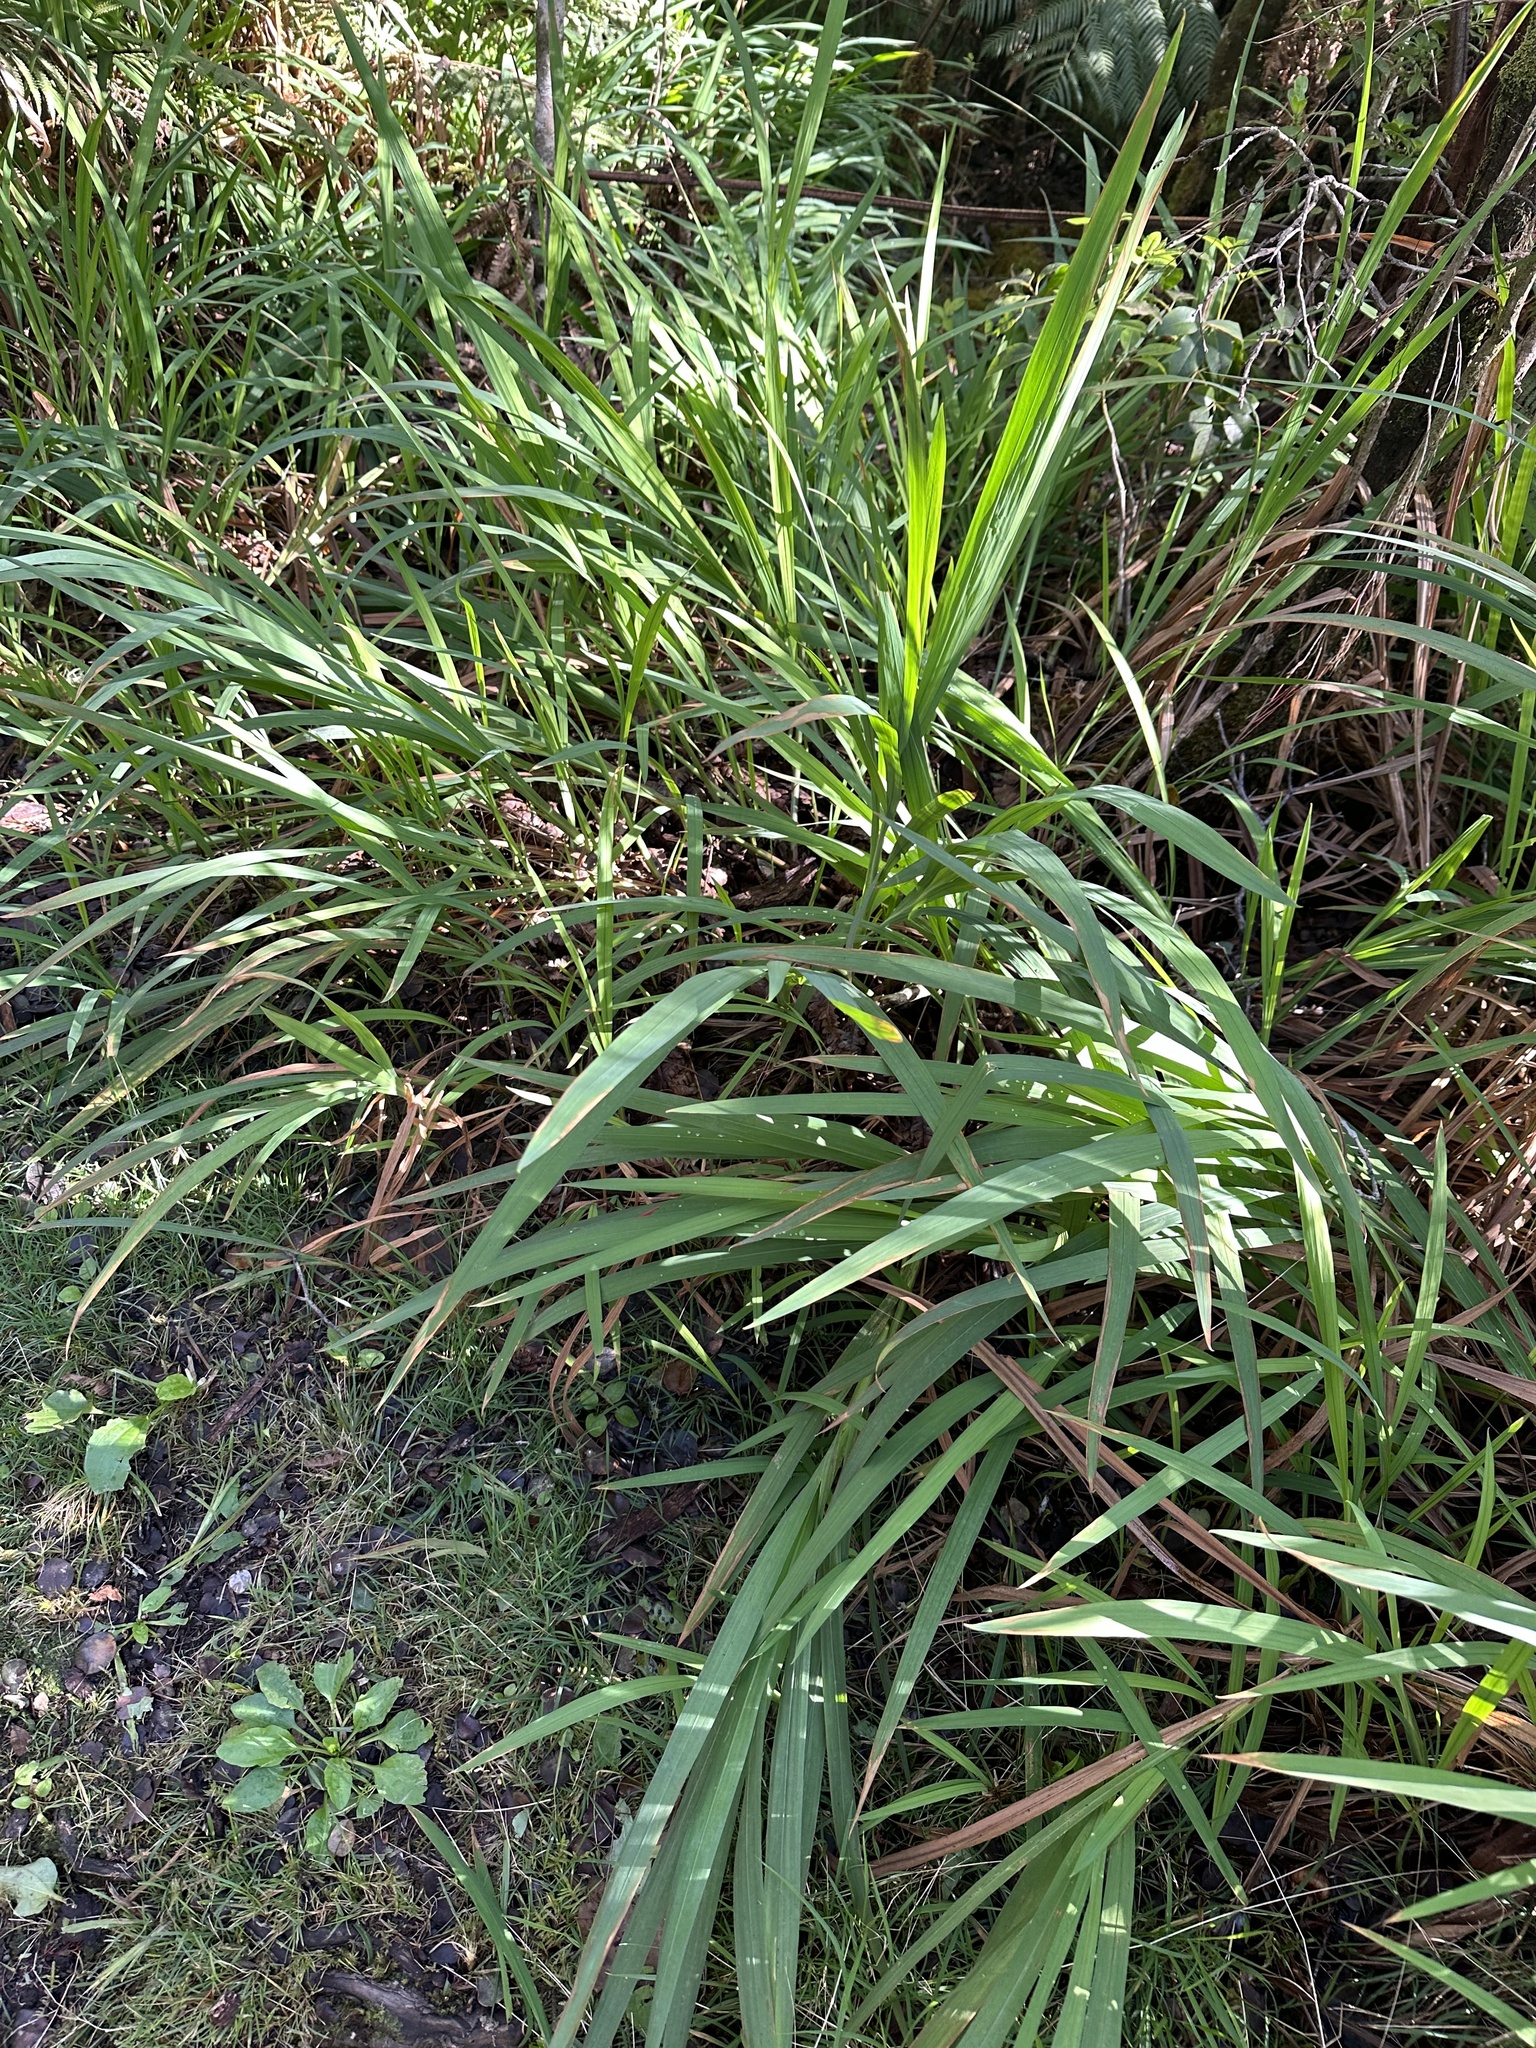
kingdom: Plantae
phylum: Tracheophyta
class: Liliopsida
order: Asparagales
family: Iridaceae
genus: Crocosmia
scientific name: Crocosmia crocosmiiflora
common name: Montbretia
